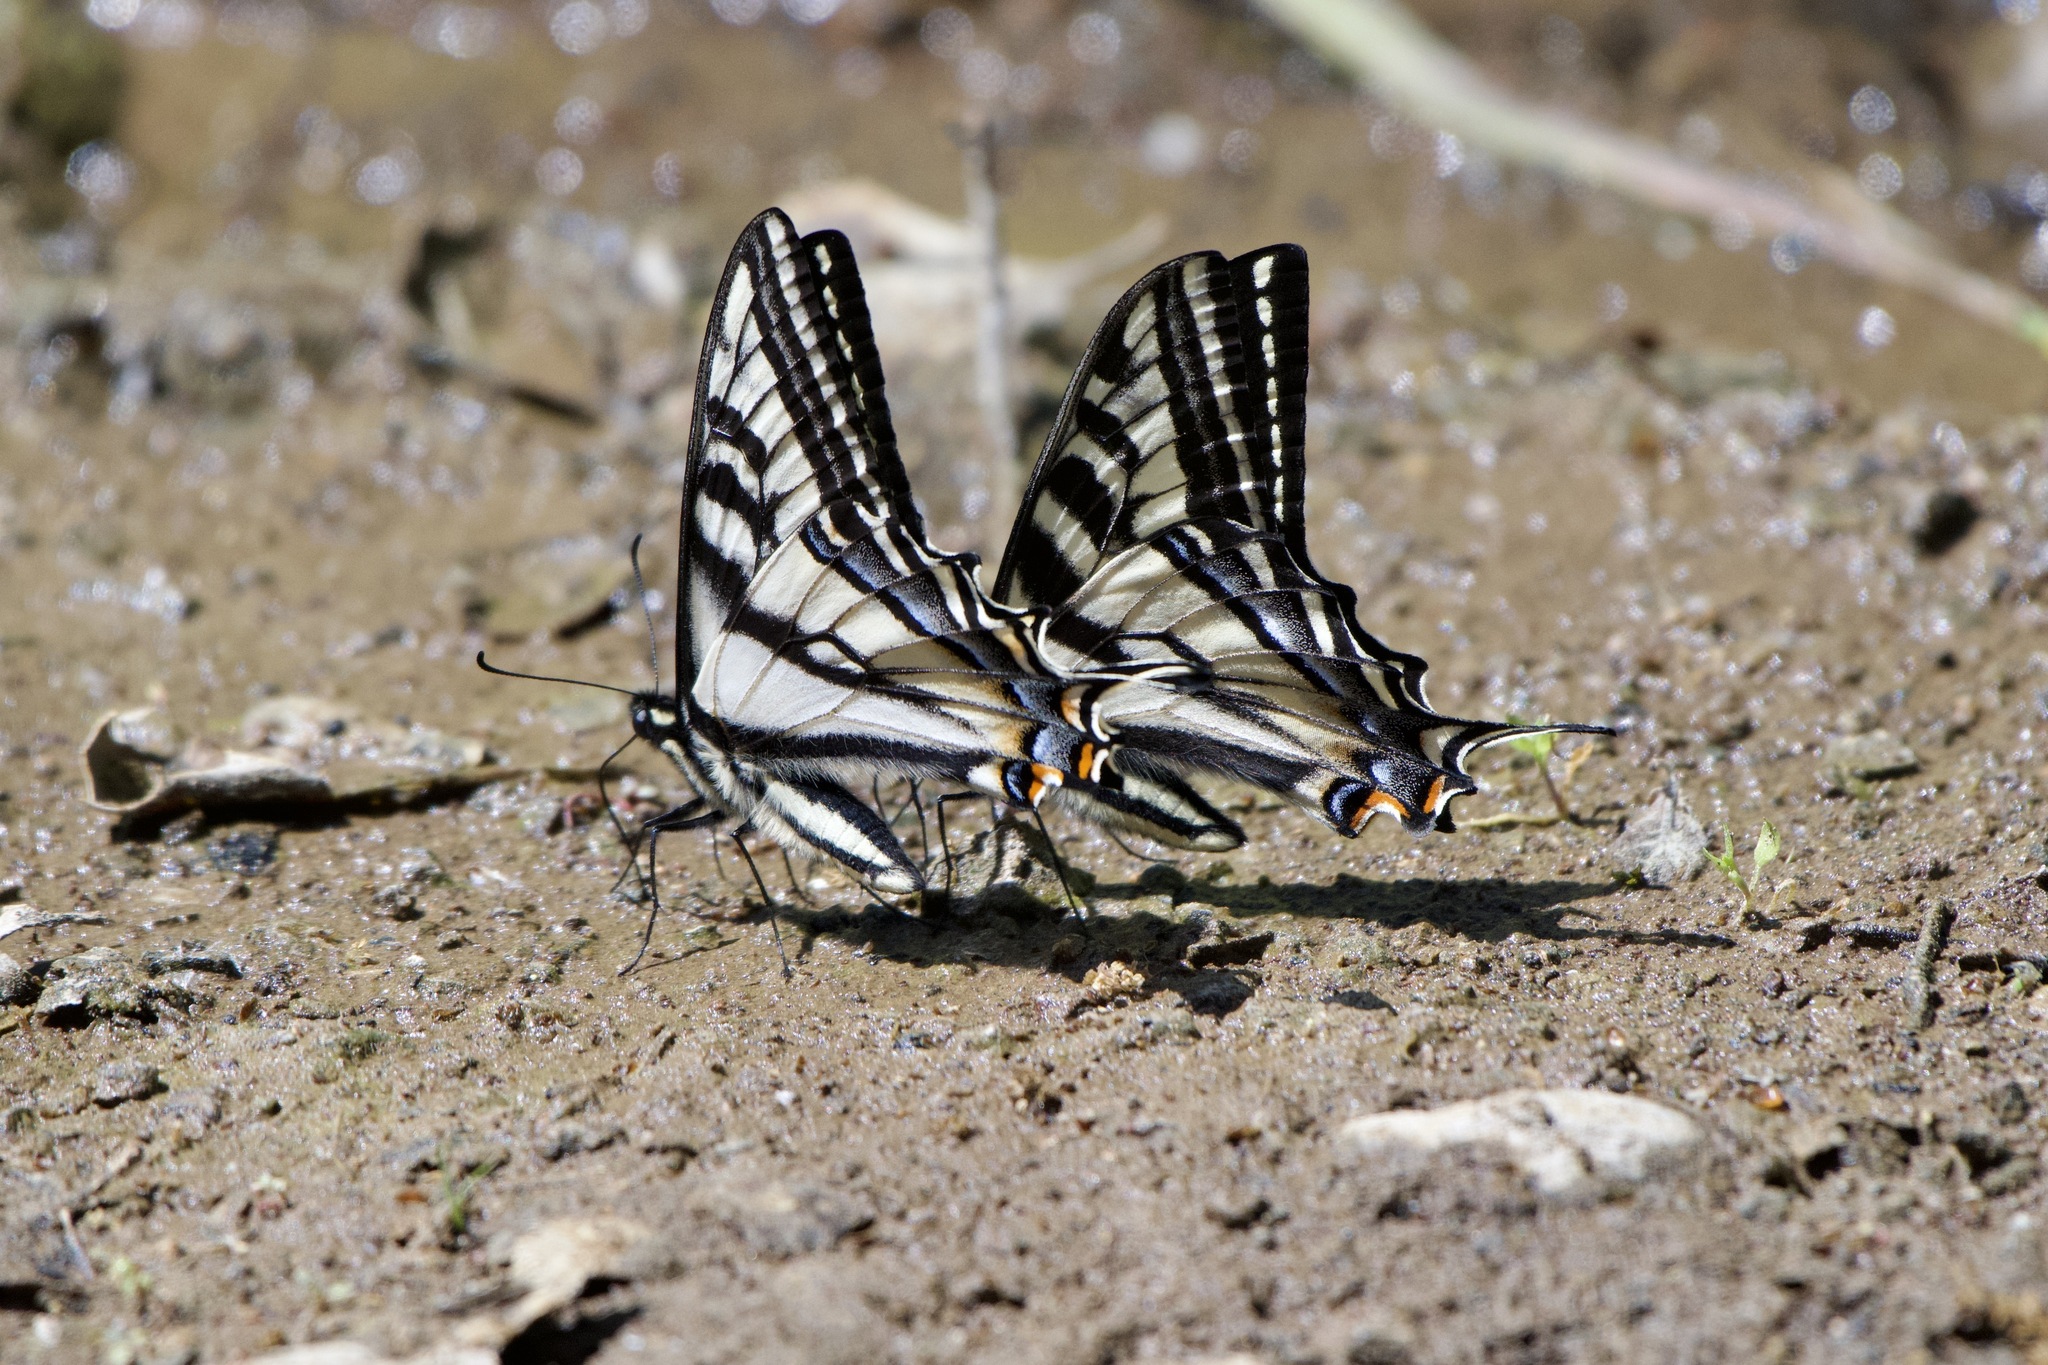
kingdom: Animalia
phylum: Arthropoda
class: Insecta
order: Lepidoptera
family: Papilionidae
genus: Papilio
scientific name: Papilio eurymedon
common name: Pale tiger swallowtail
